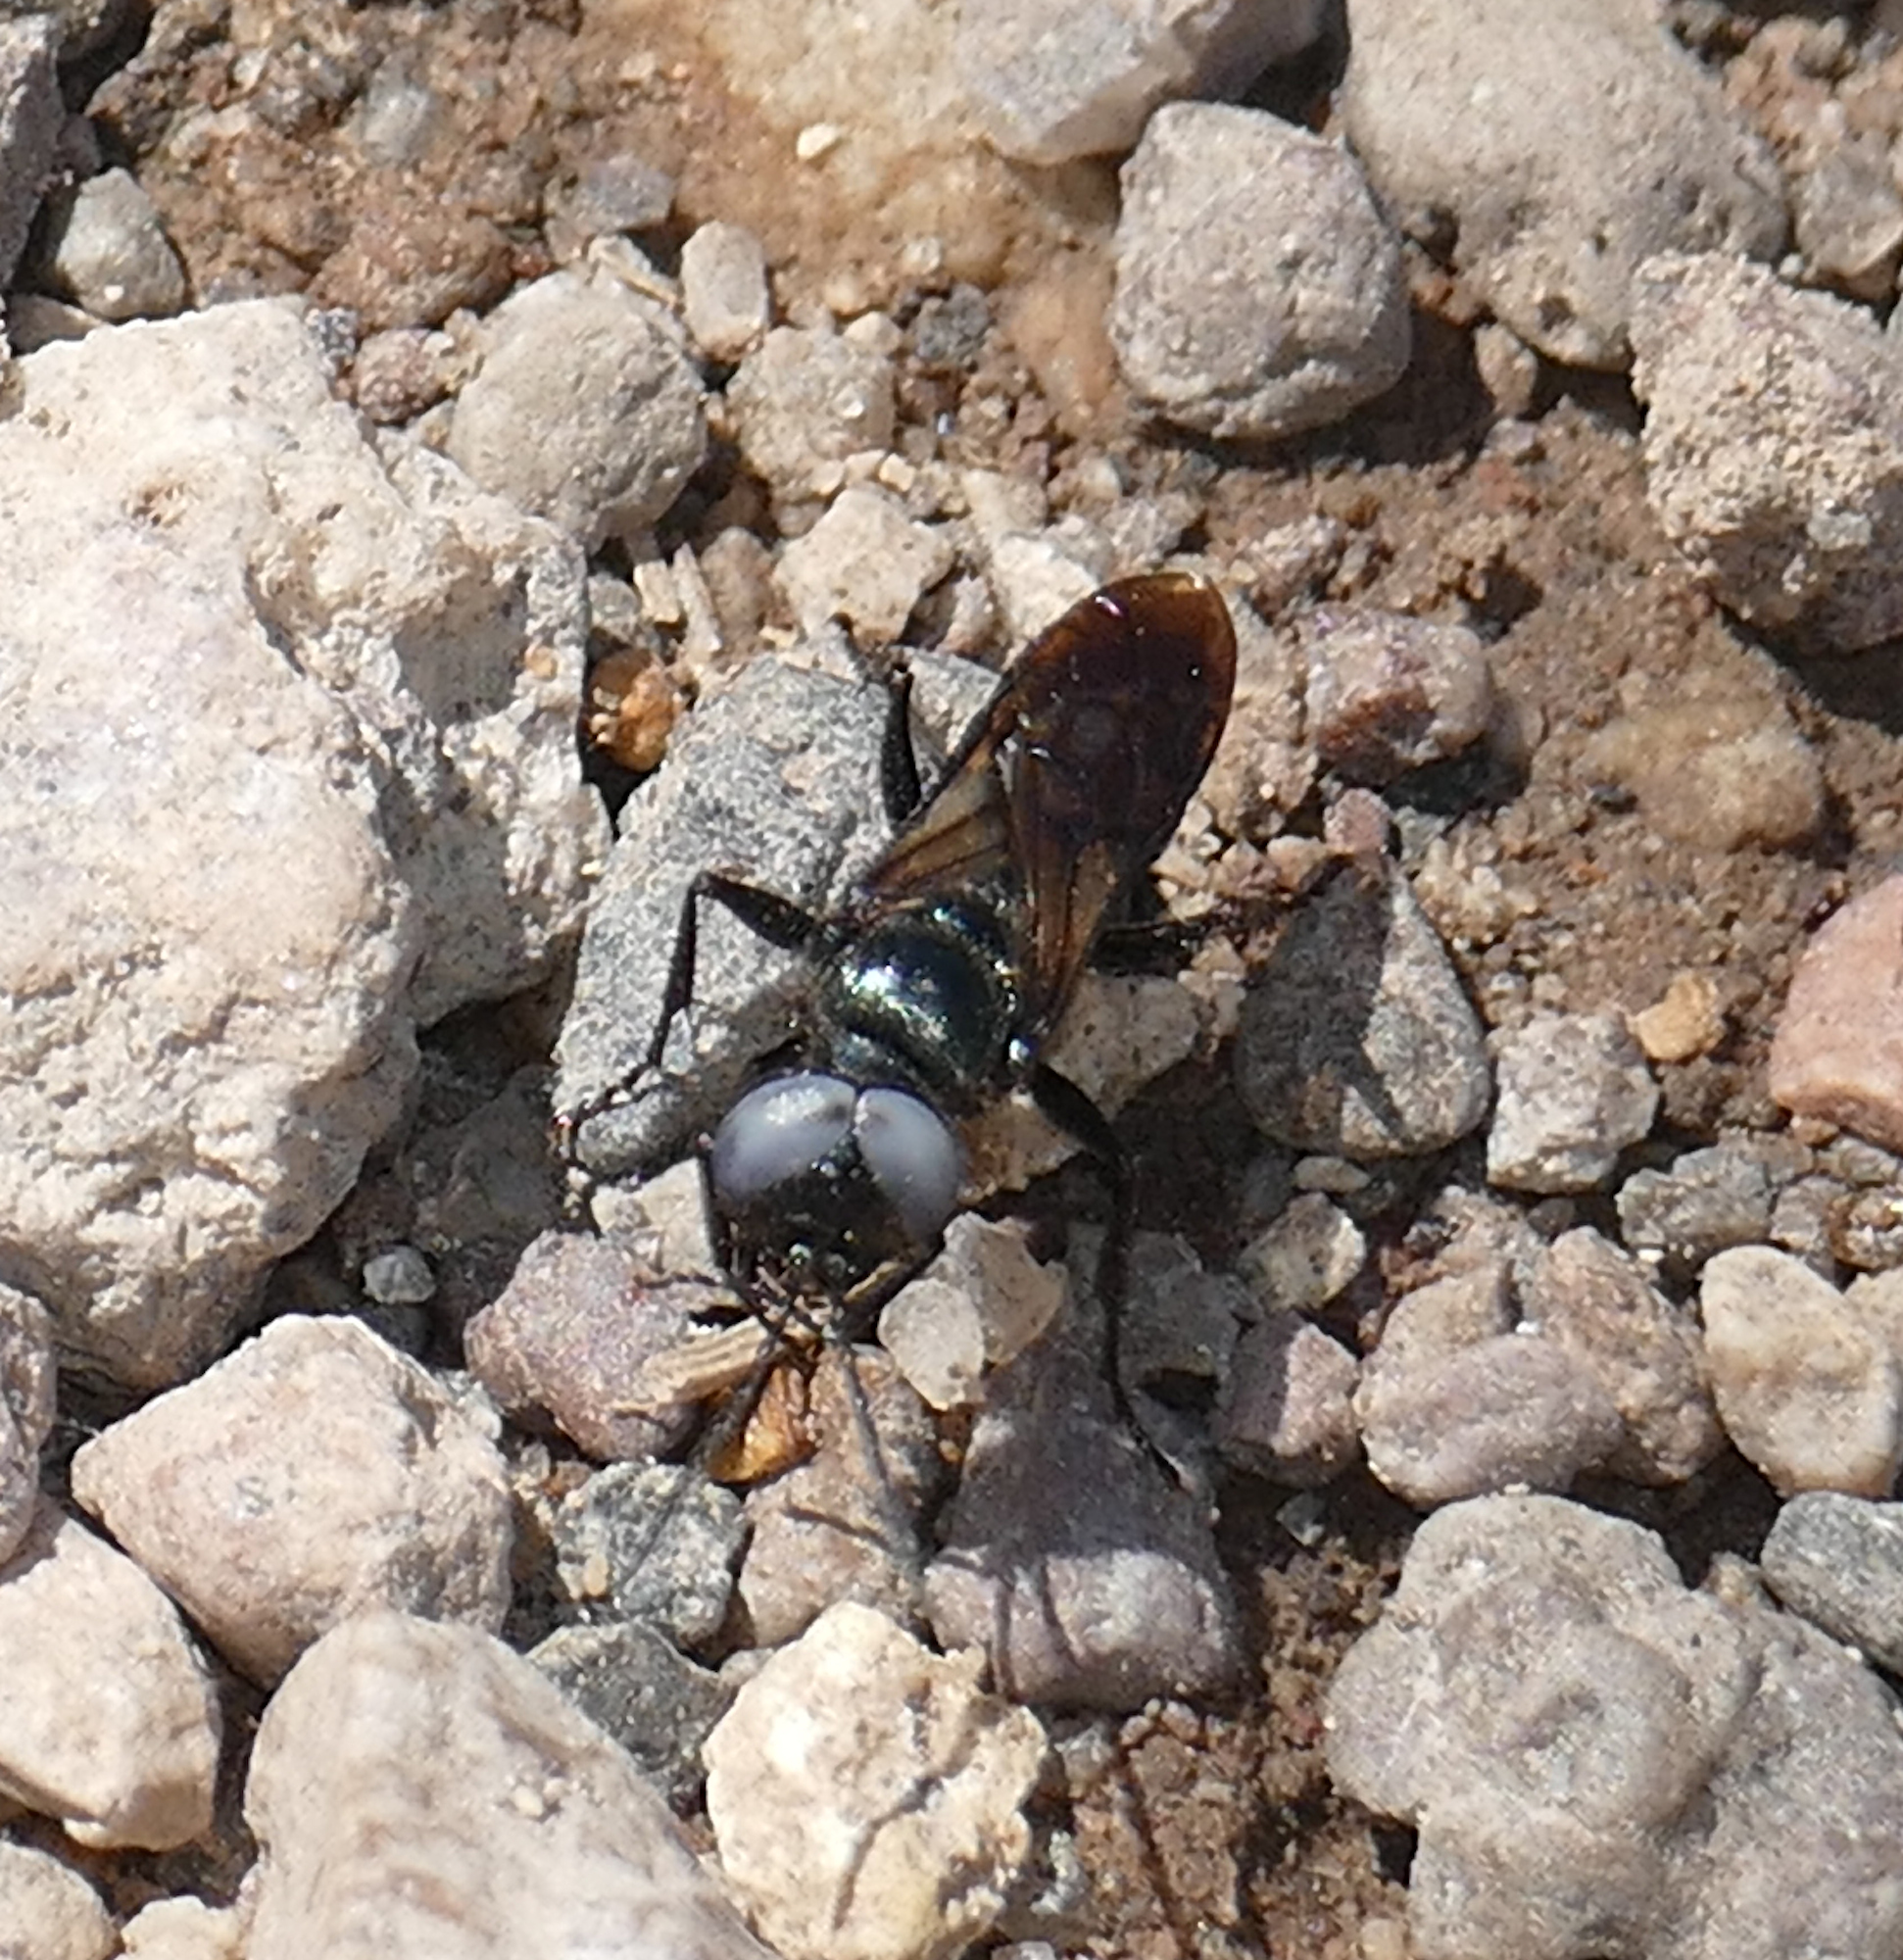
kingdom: Animalia
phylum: Arthropoda
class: Insecta
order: Hymenoptera
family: Crabronidae
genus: Dryudella
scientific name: Dryudella
